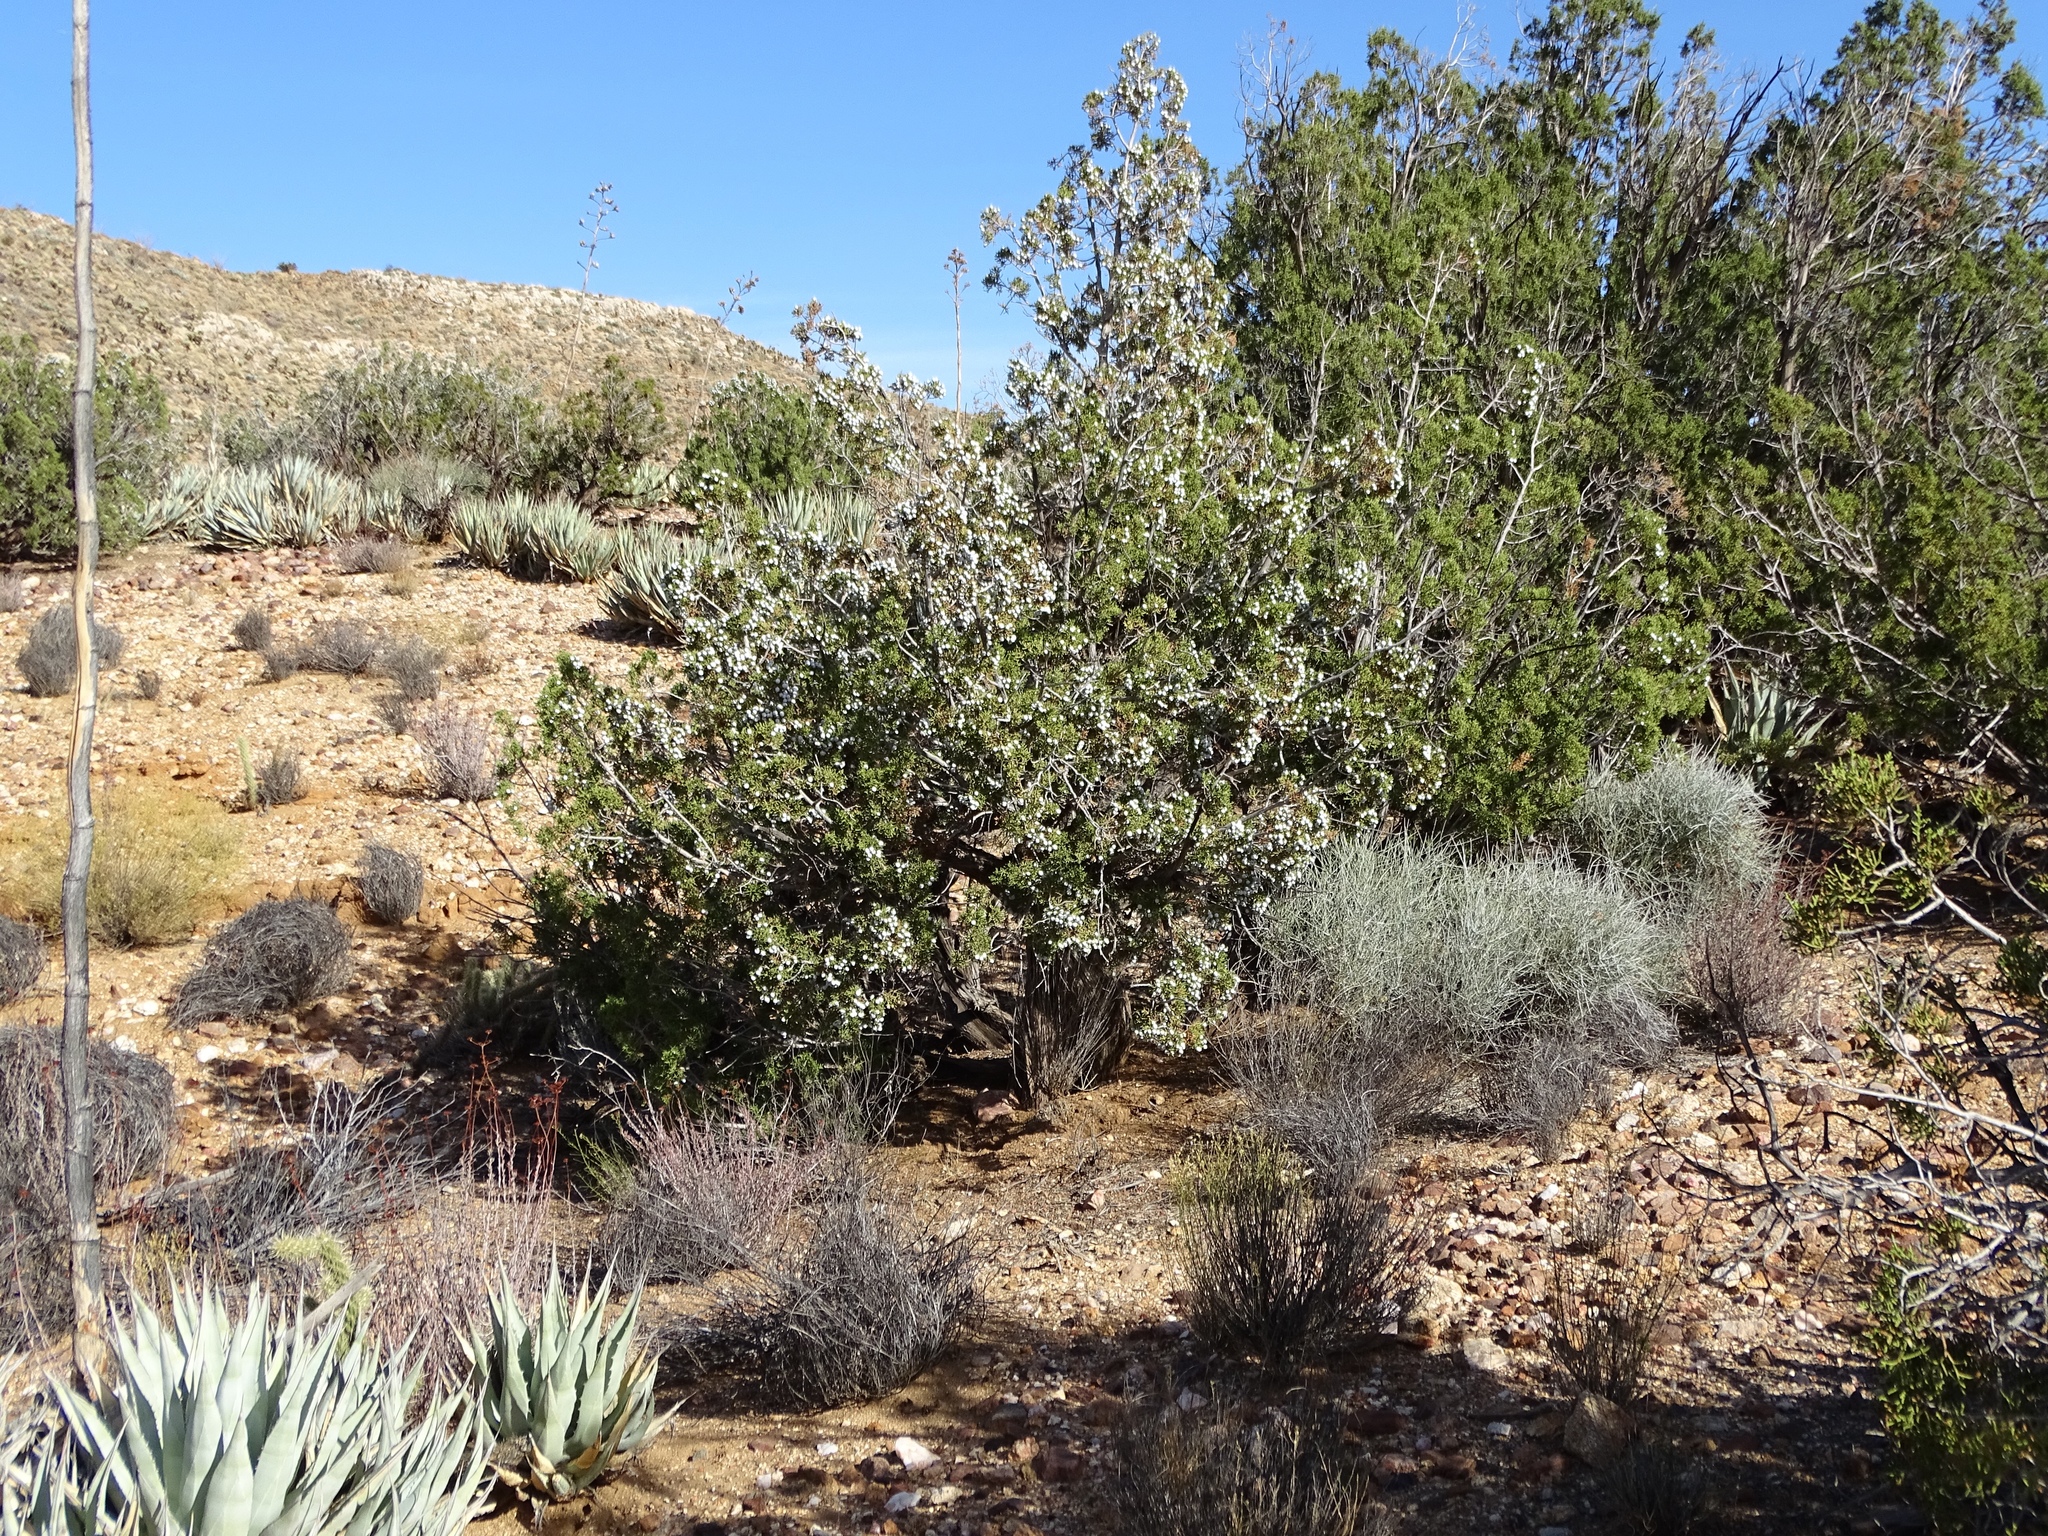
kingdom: Plantae
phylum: Tracheophyta
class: Pinopsida
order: Pinales
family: Cupressaceae
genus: Juniperus
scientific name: Juniperus californica
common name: California juniper
